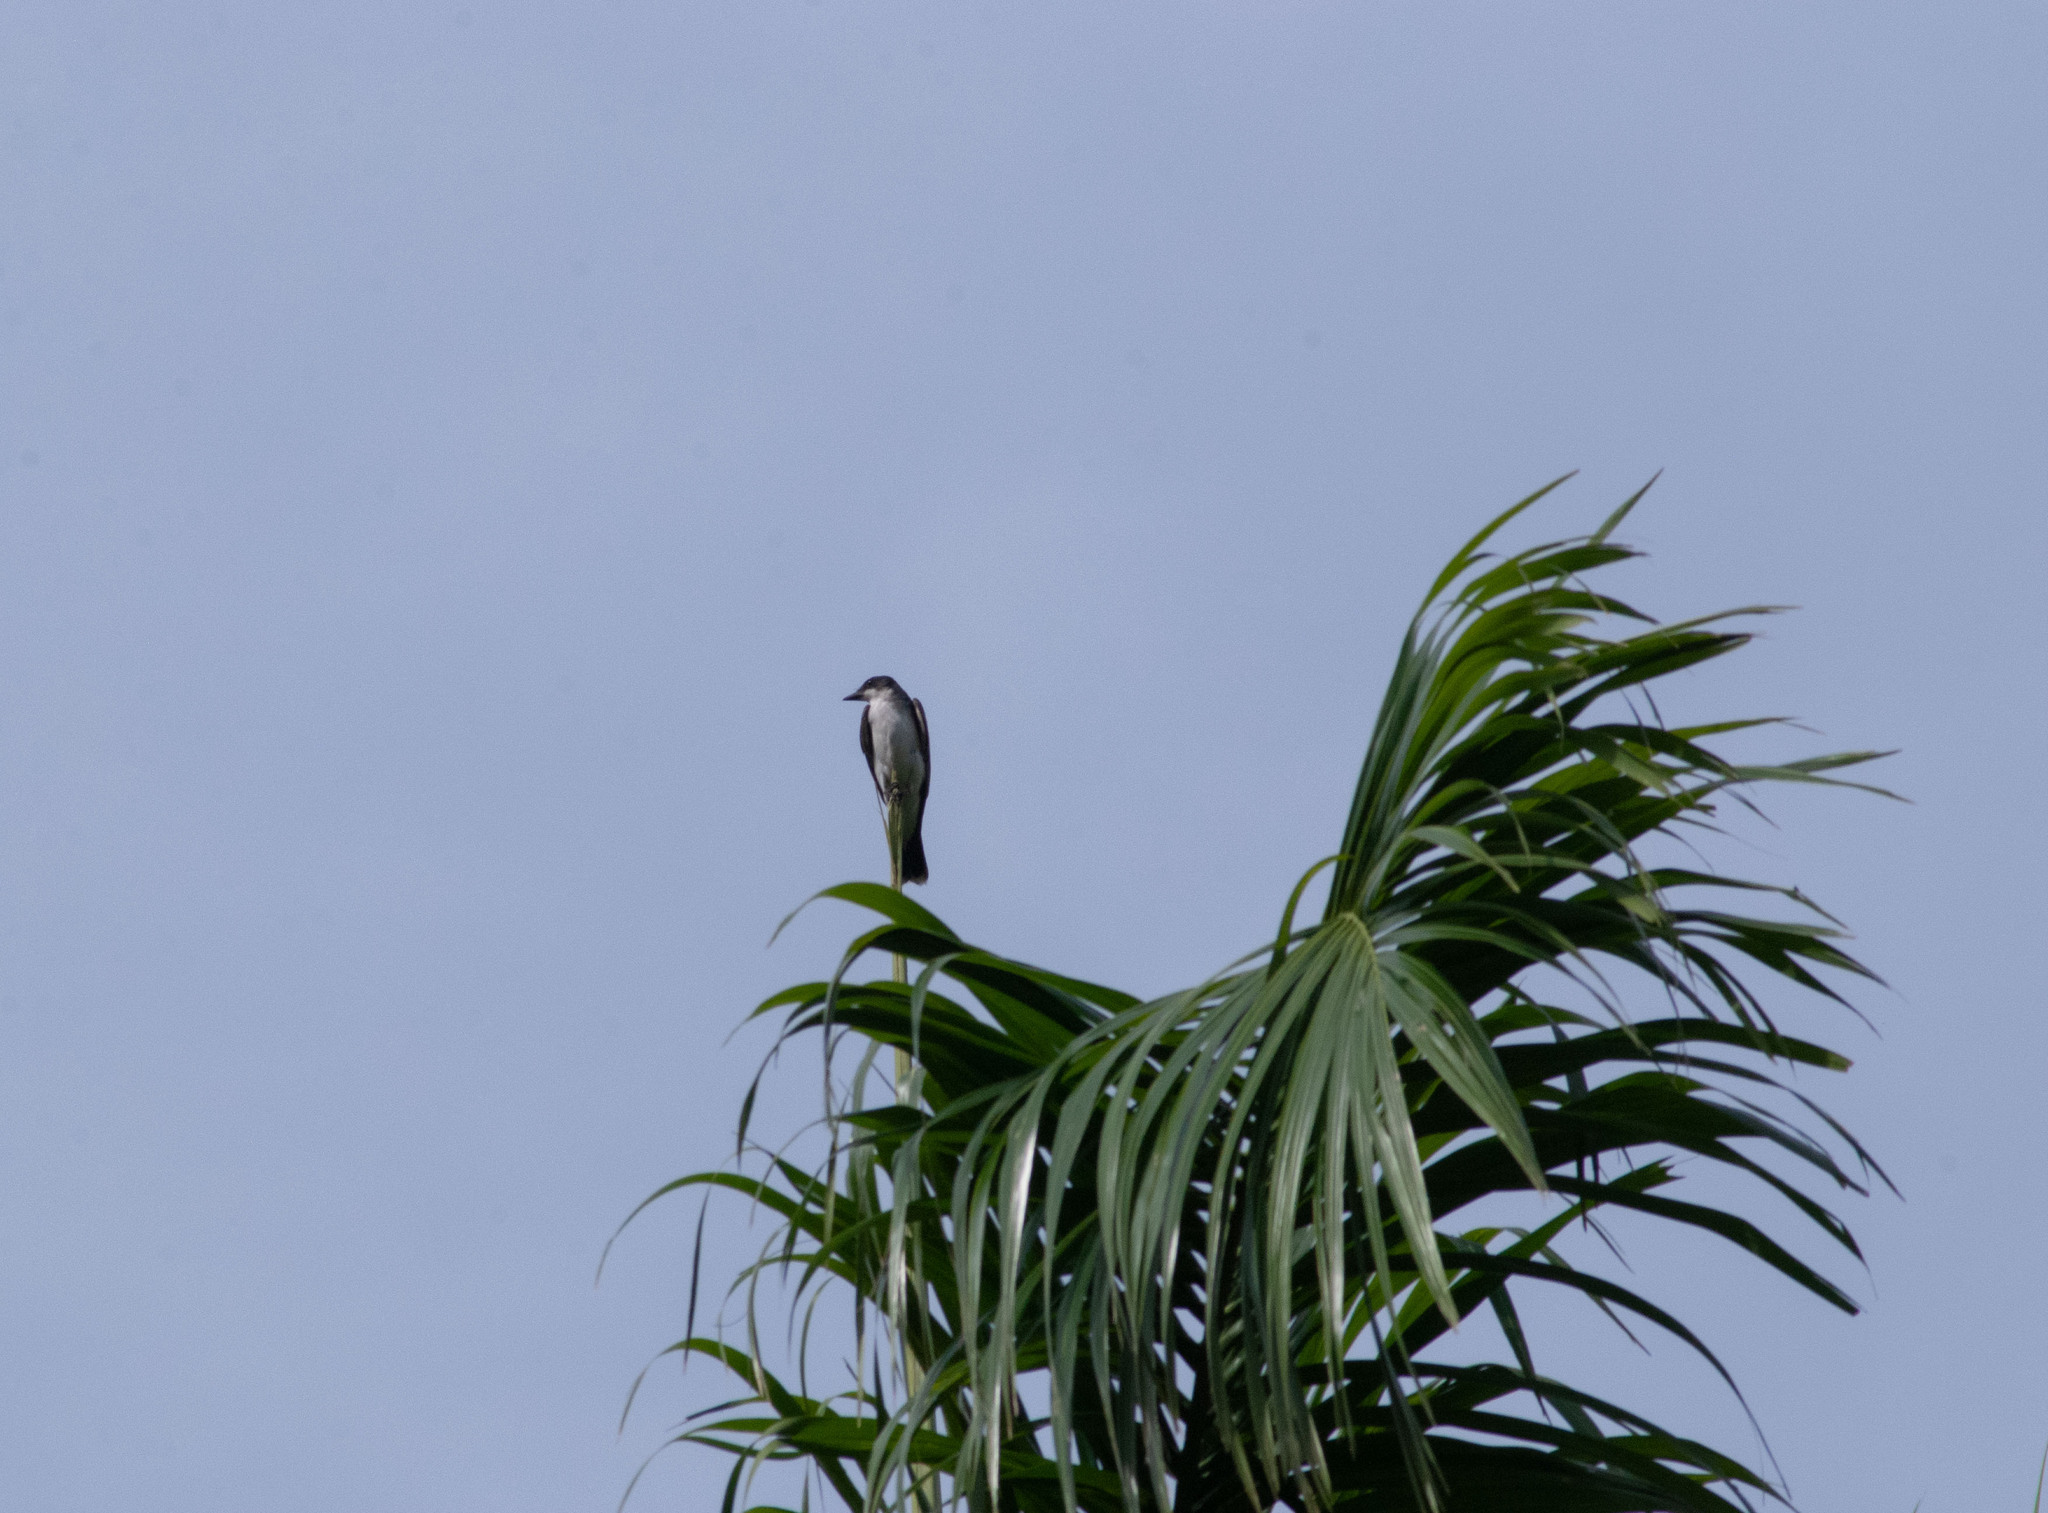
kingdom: Animalia
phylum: Chordata
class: Aves
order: Passeriformes
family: Tyrannidae
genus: Tyrannus
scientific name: Tyrannus tyrannus
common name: Eastern kingbird
